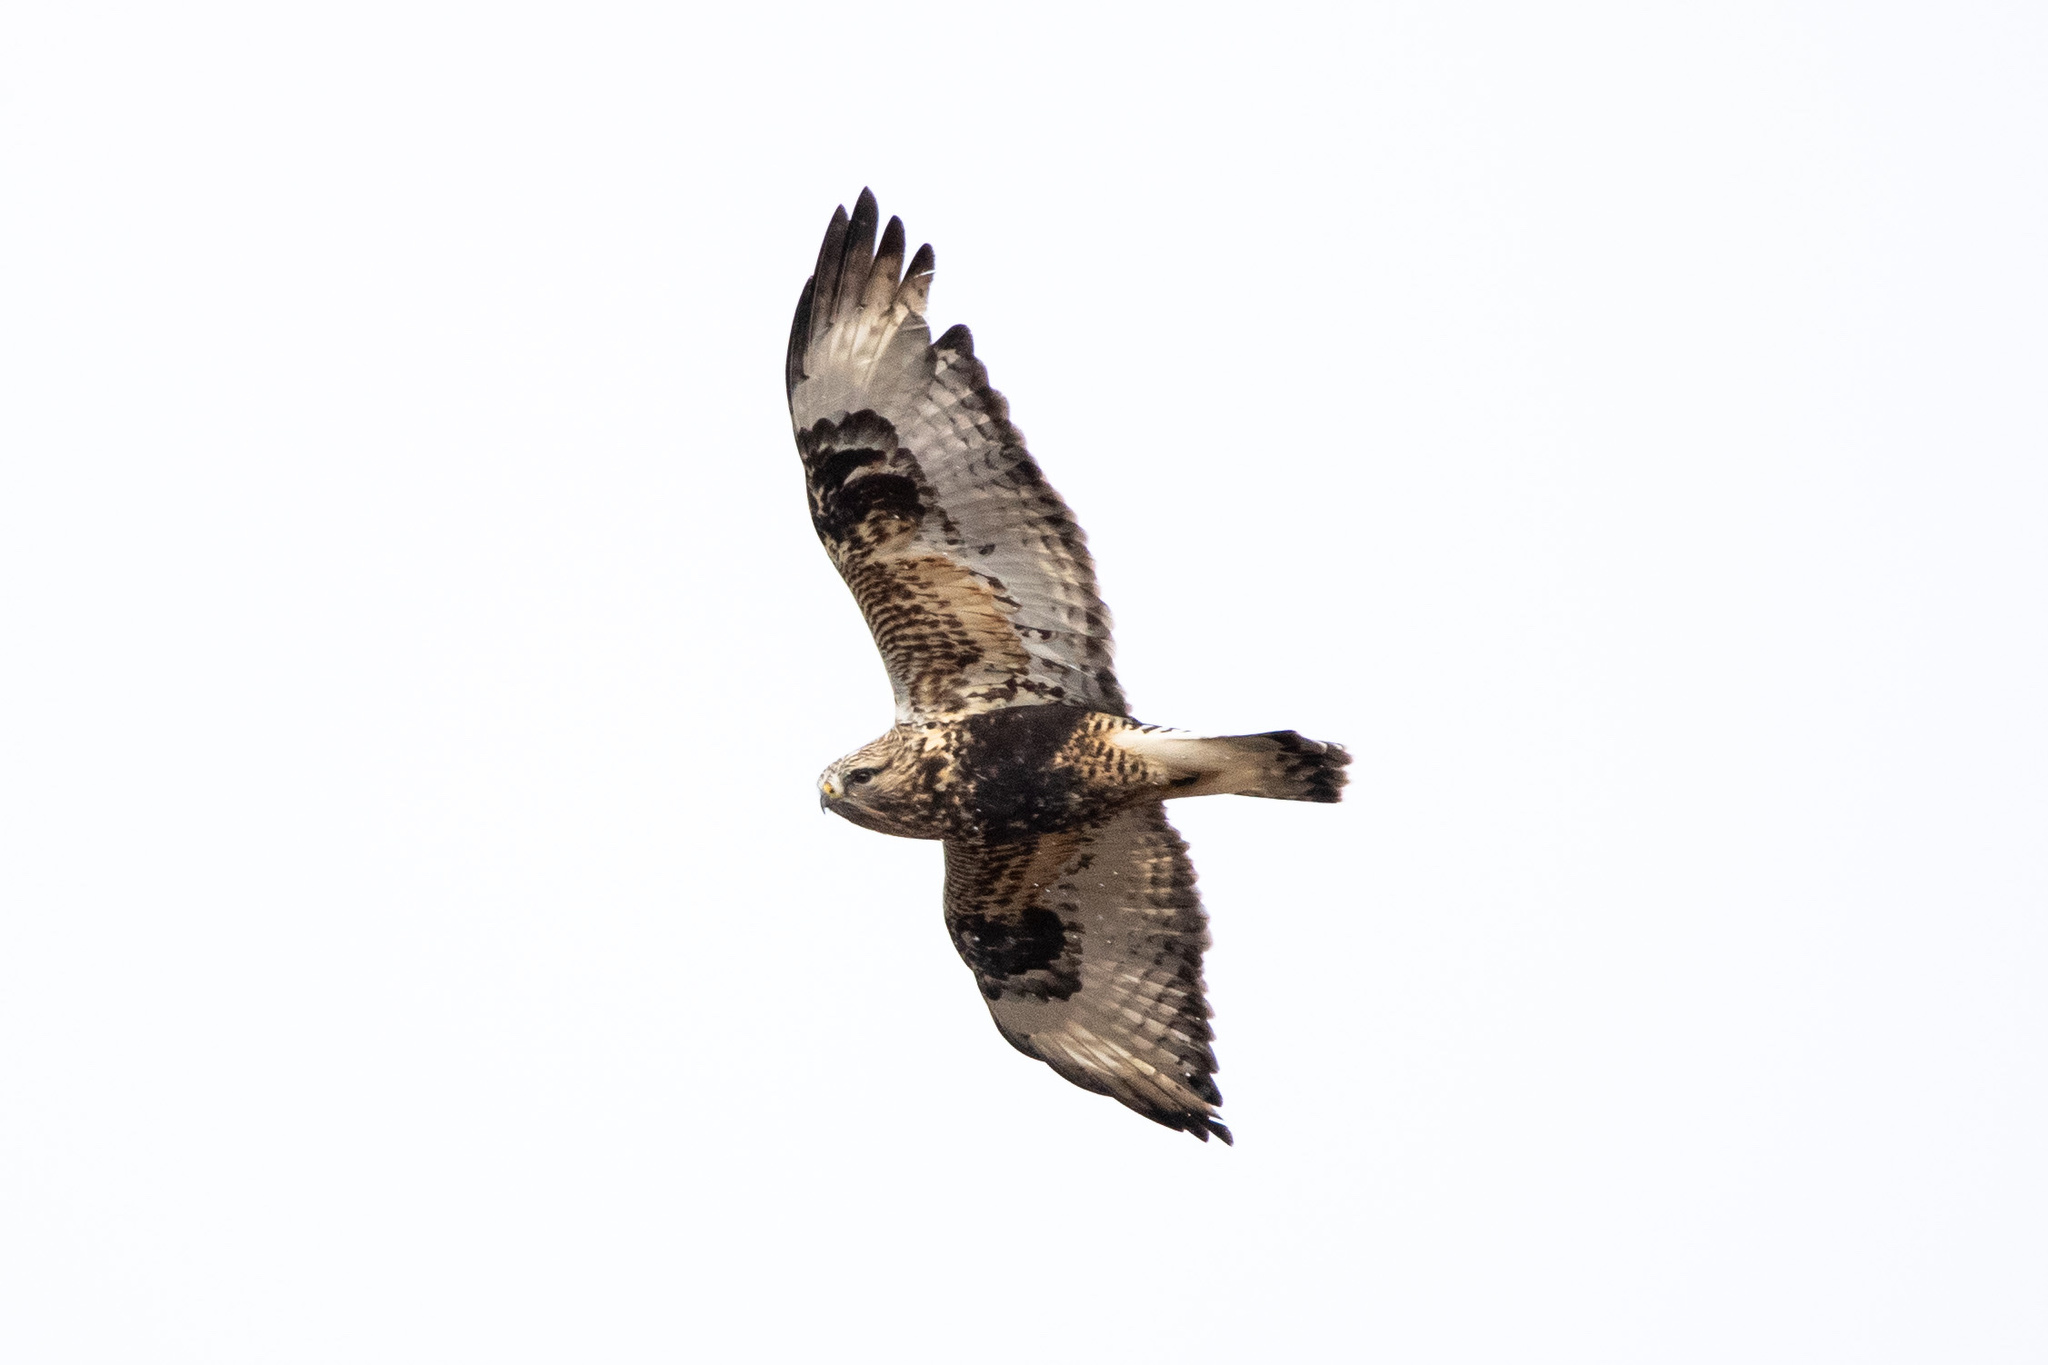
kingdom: Animalia
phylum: Chordata
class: Aves
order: Accipitriformes
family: Accipitridae
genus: Buteo
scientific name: Buteo lagopus
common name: Rough-legged buzzard
